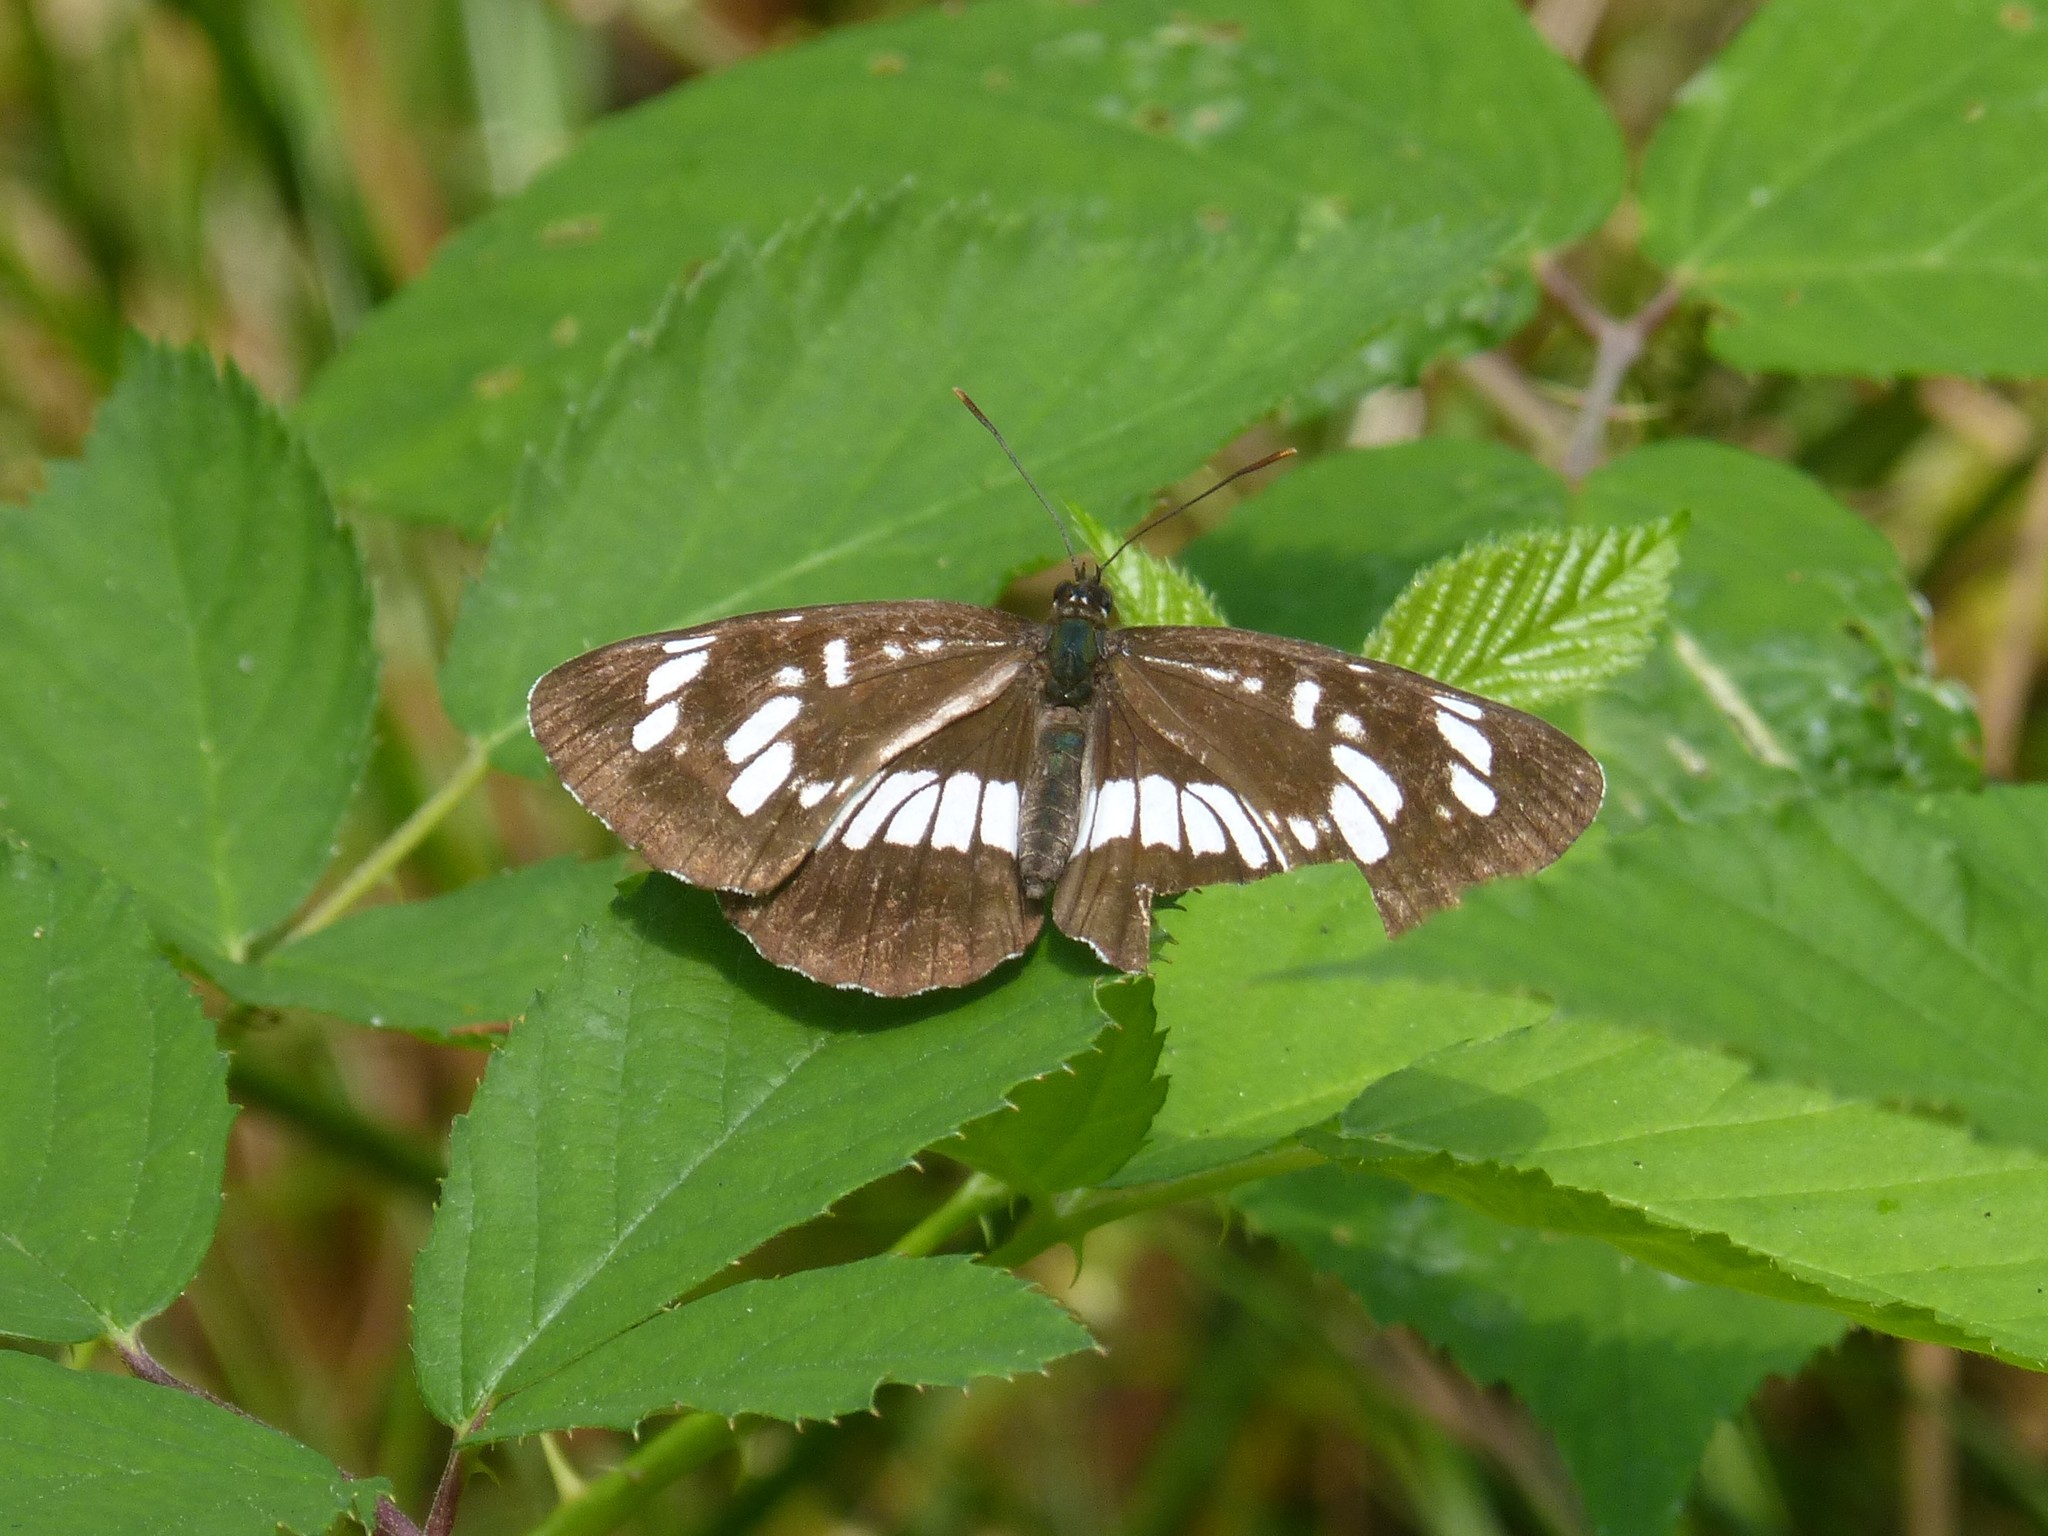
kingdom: Animalia
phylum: Arthropoda
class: Insecta
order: Lepidoptera
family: Nymphalidae
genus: Neptis
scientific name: Neptis rivularis
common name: Hungarian glider
